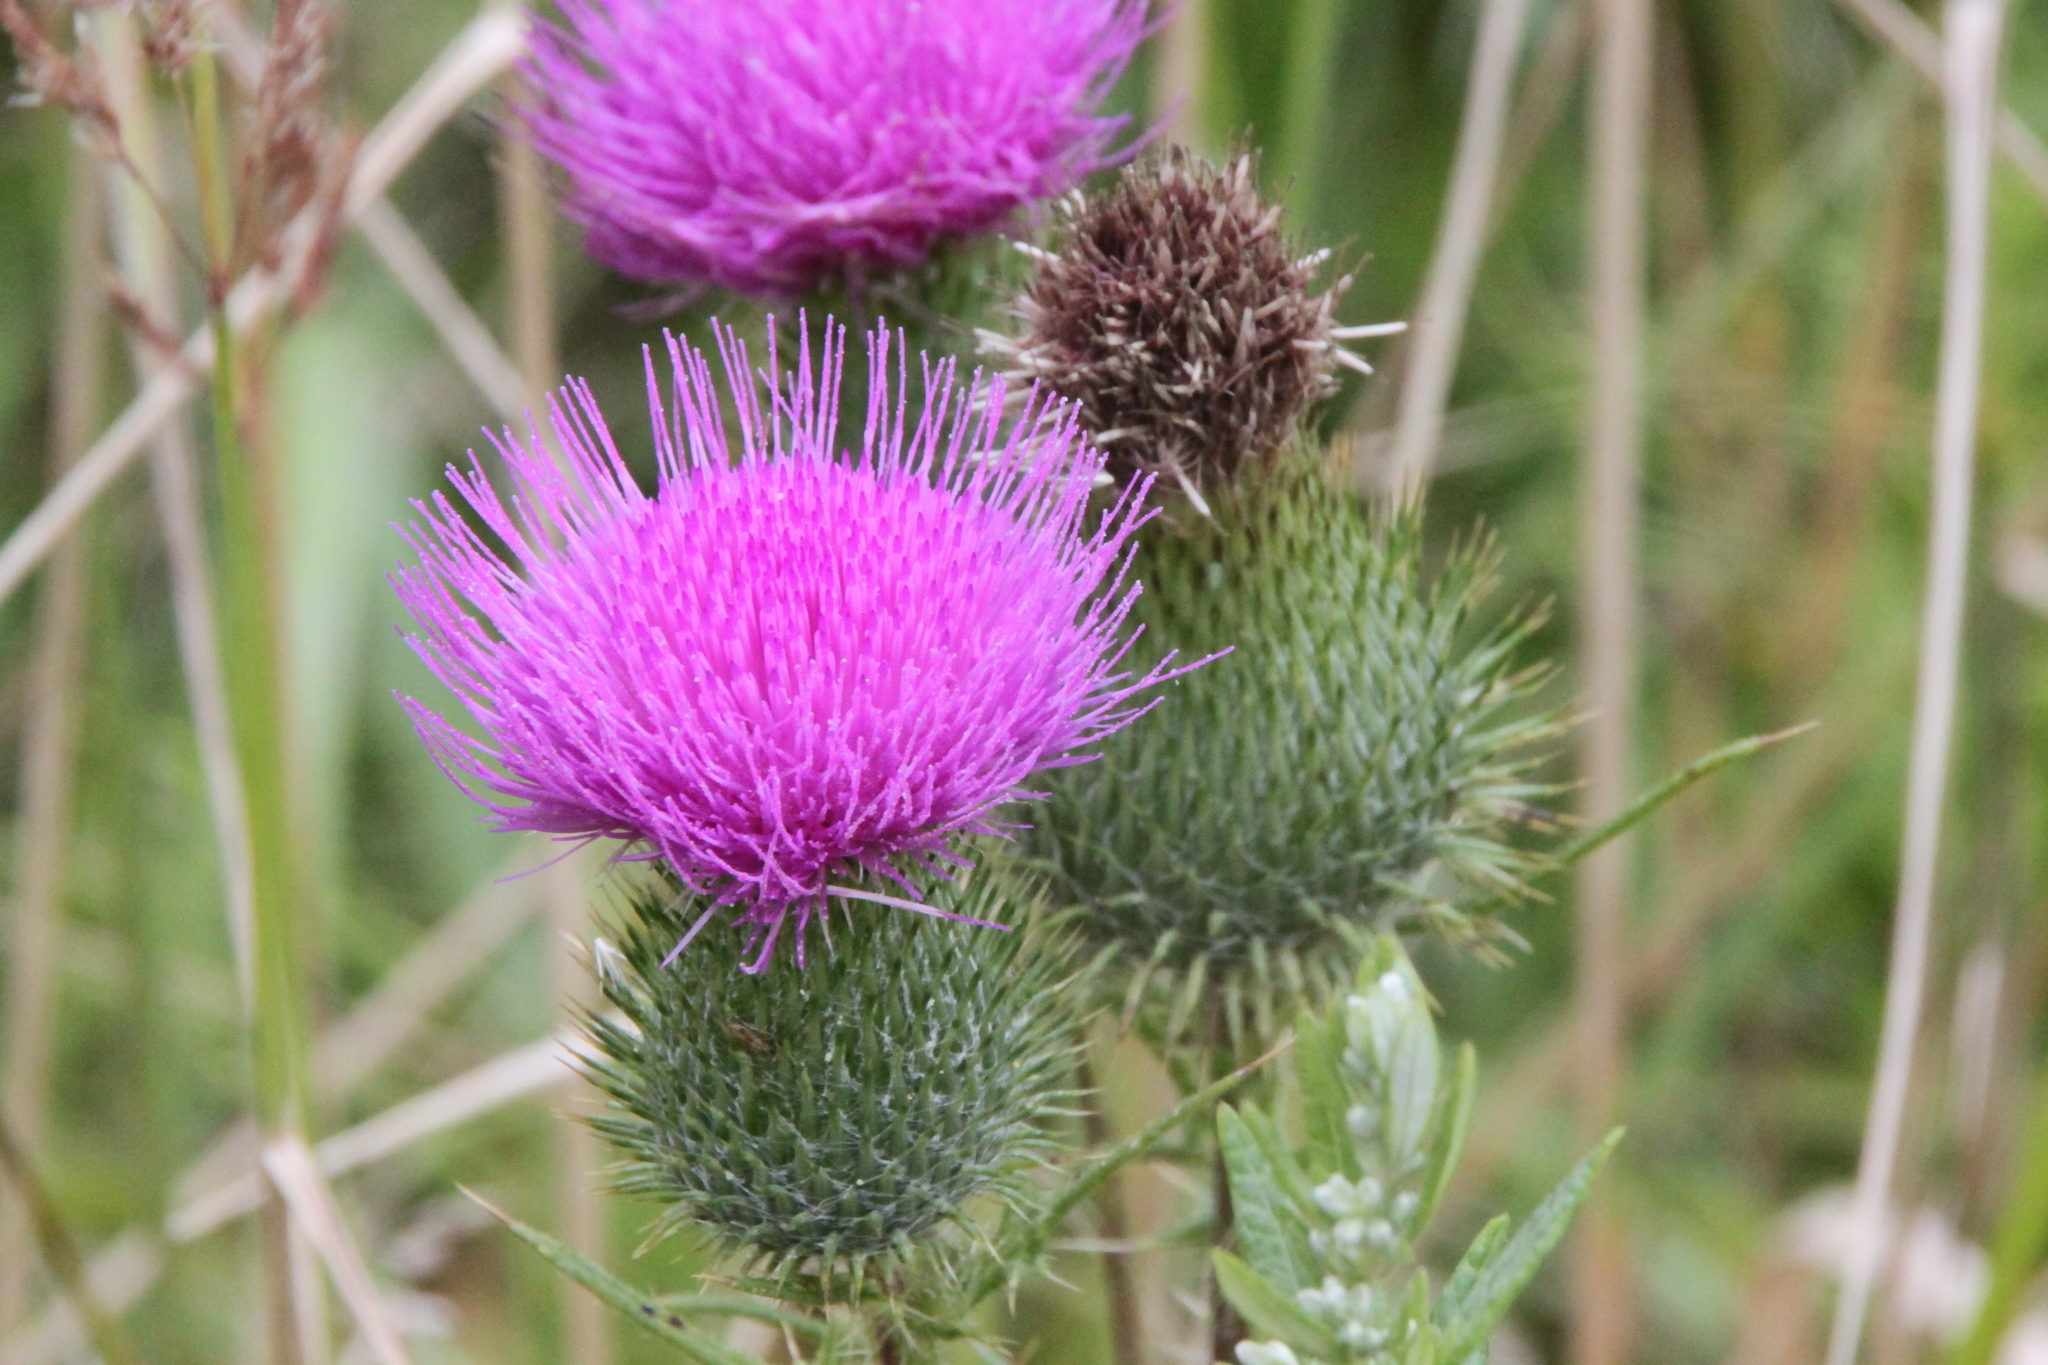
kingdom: Plantae
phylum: Tracheophyta
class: Magnoliopsida
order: Asterales
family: Asteraceae
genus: Cirsium
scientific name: Cirsium vulgare
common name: Bull thistle
